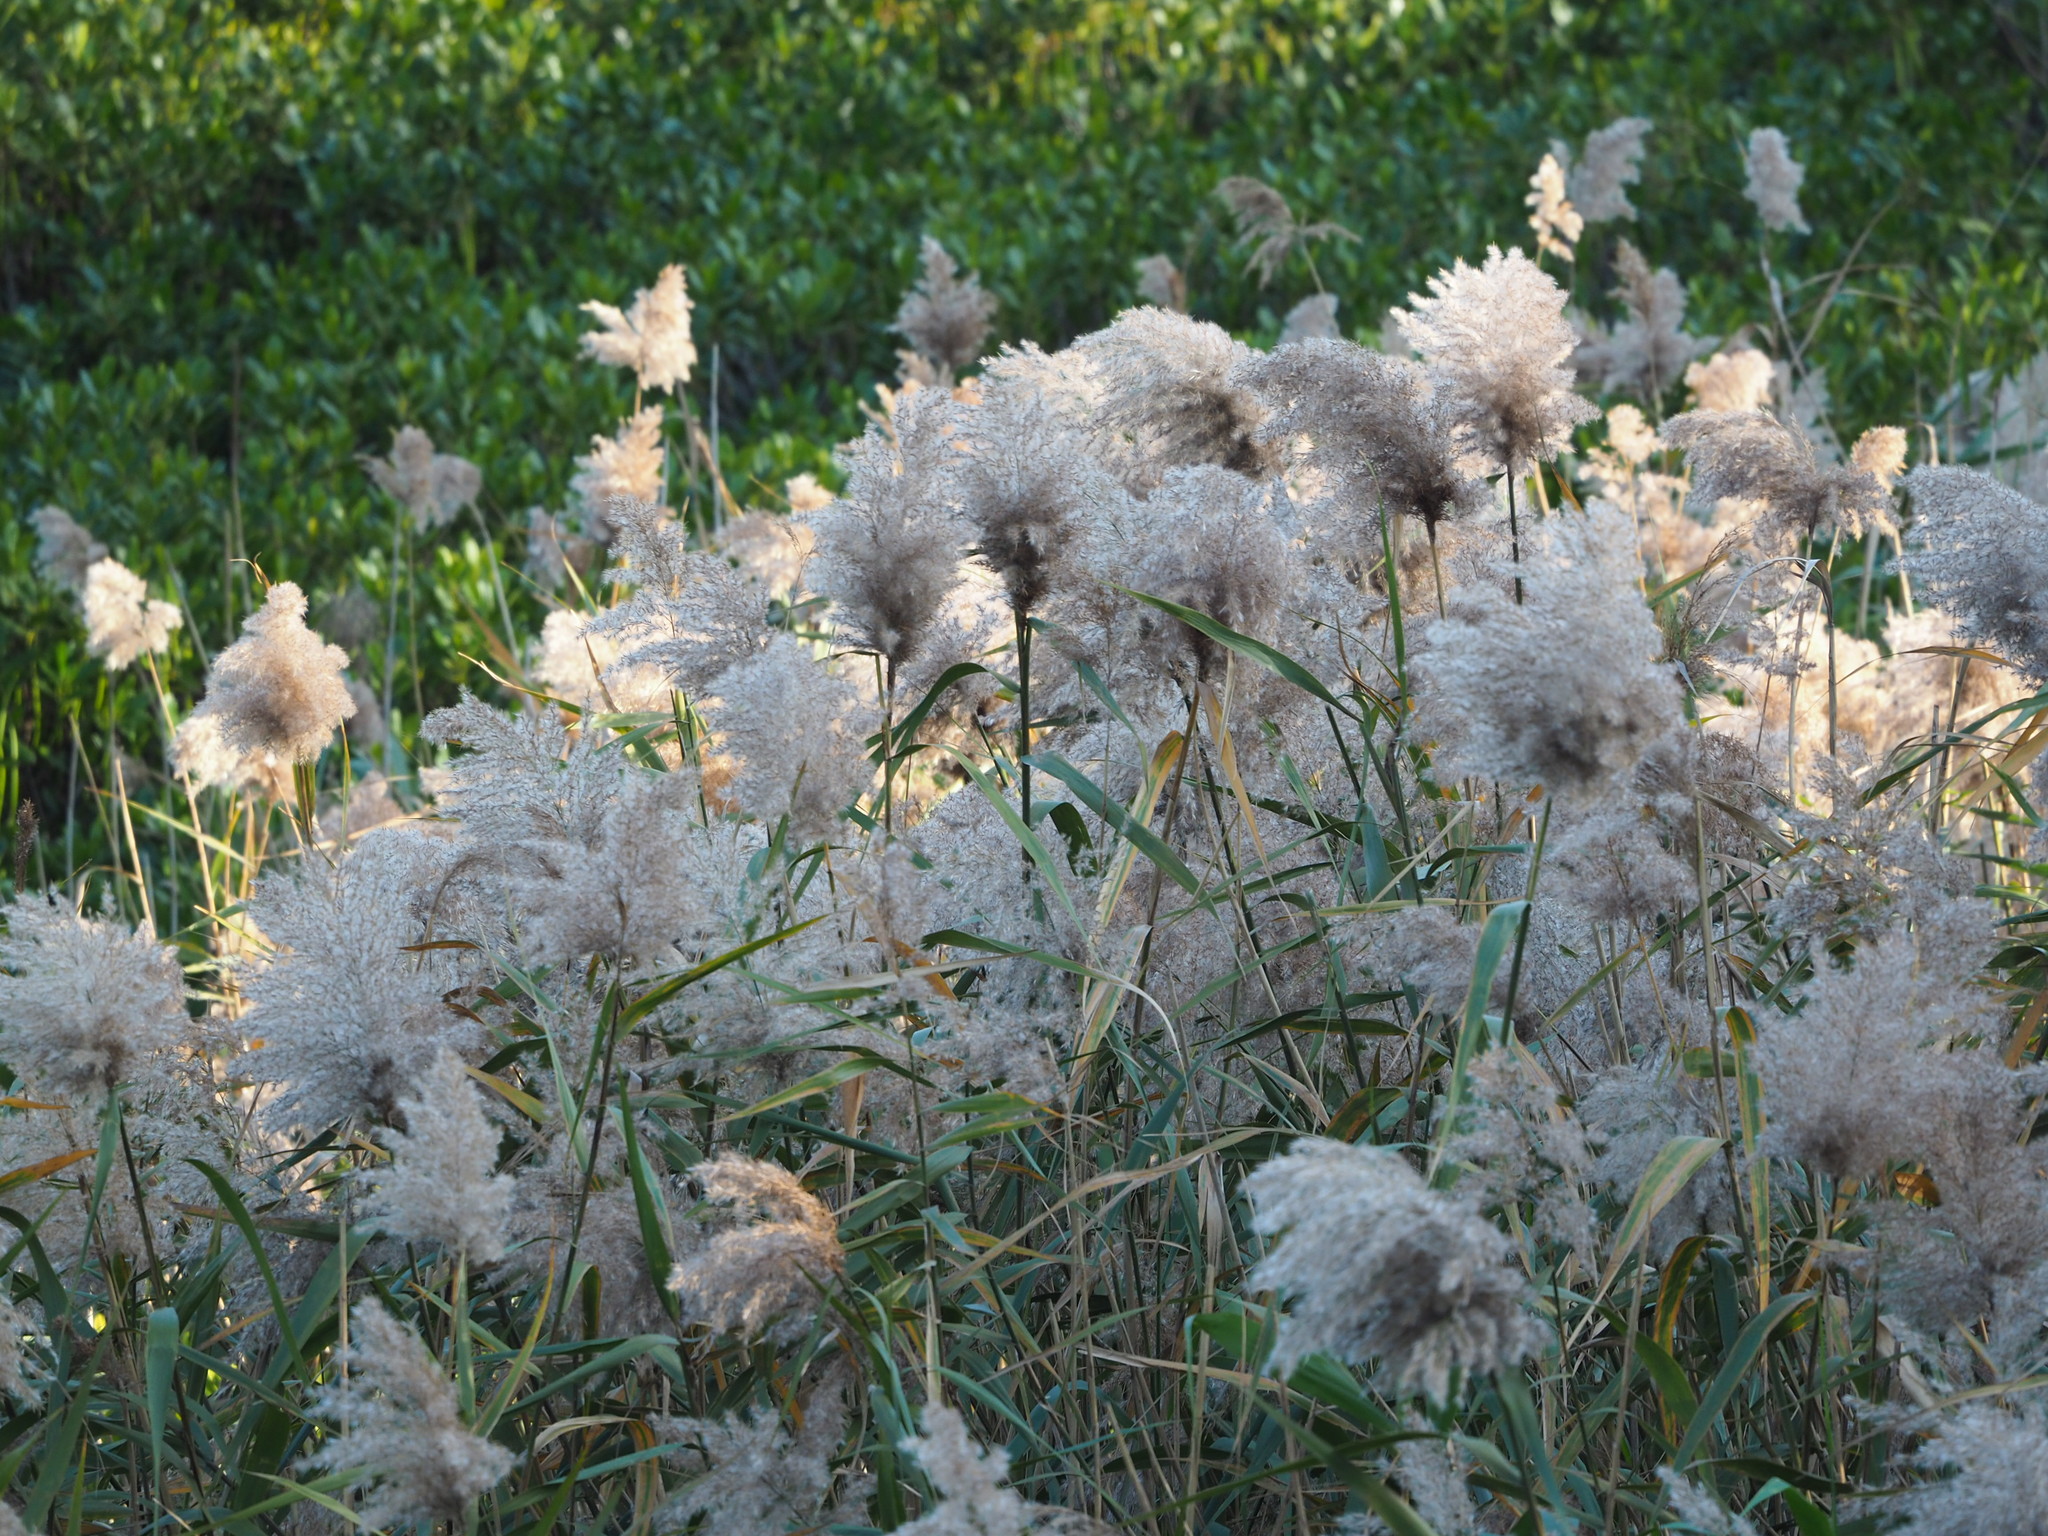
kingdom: Plantae
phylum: Tracheophyta
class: Liliopsida
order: Poales
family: Poaceae
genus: Phragmites
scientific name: Phragmites australis
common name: Common reed
